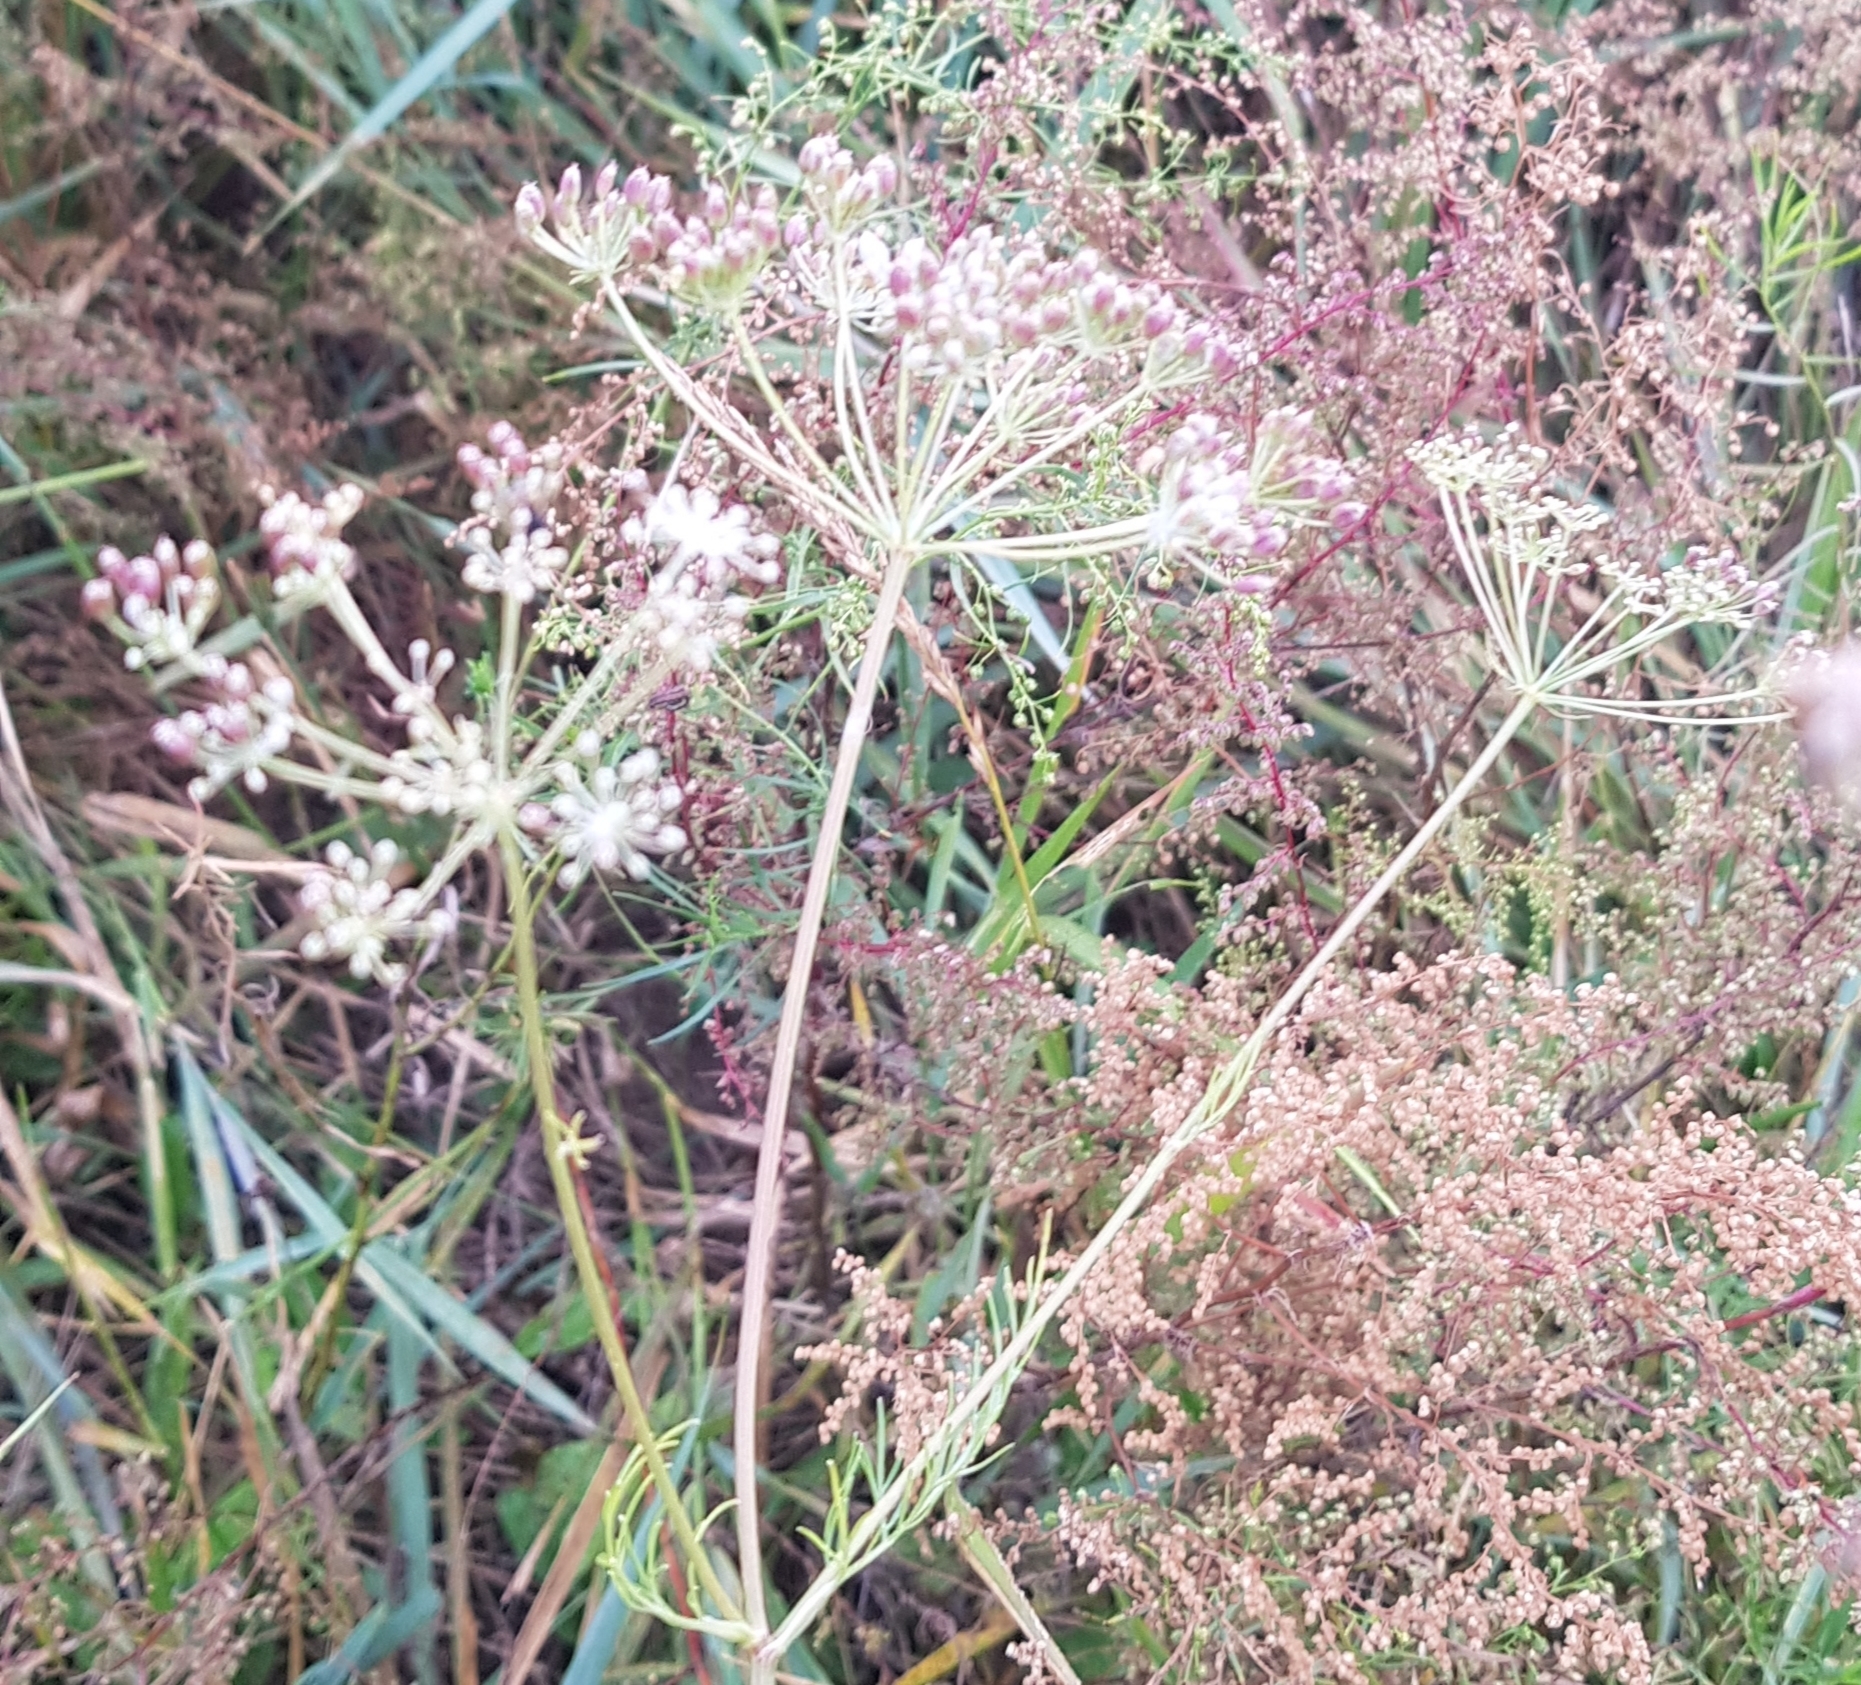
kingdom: Plantae
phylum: Tracheophyta
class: Magnoliopsida
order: Apiales
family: Apiaceae
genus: Carum
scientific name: Carum buriaticum
